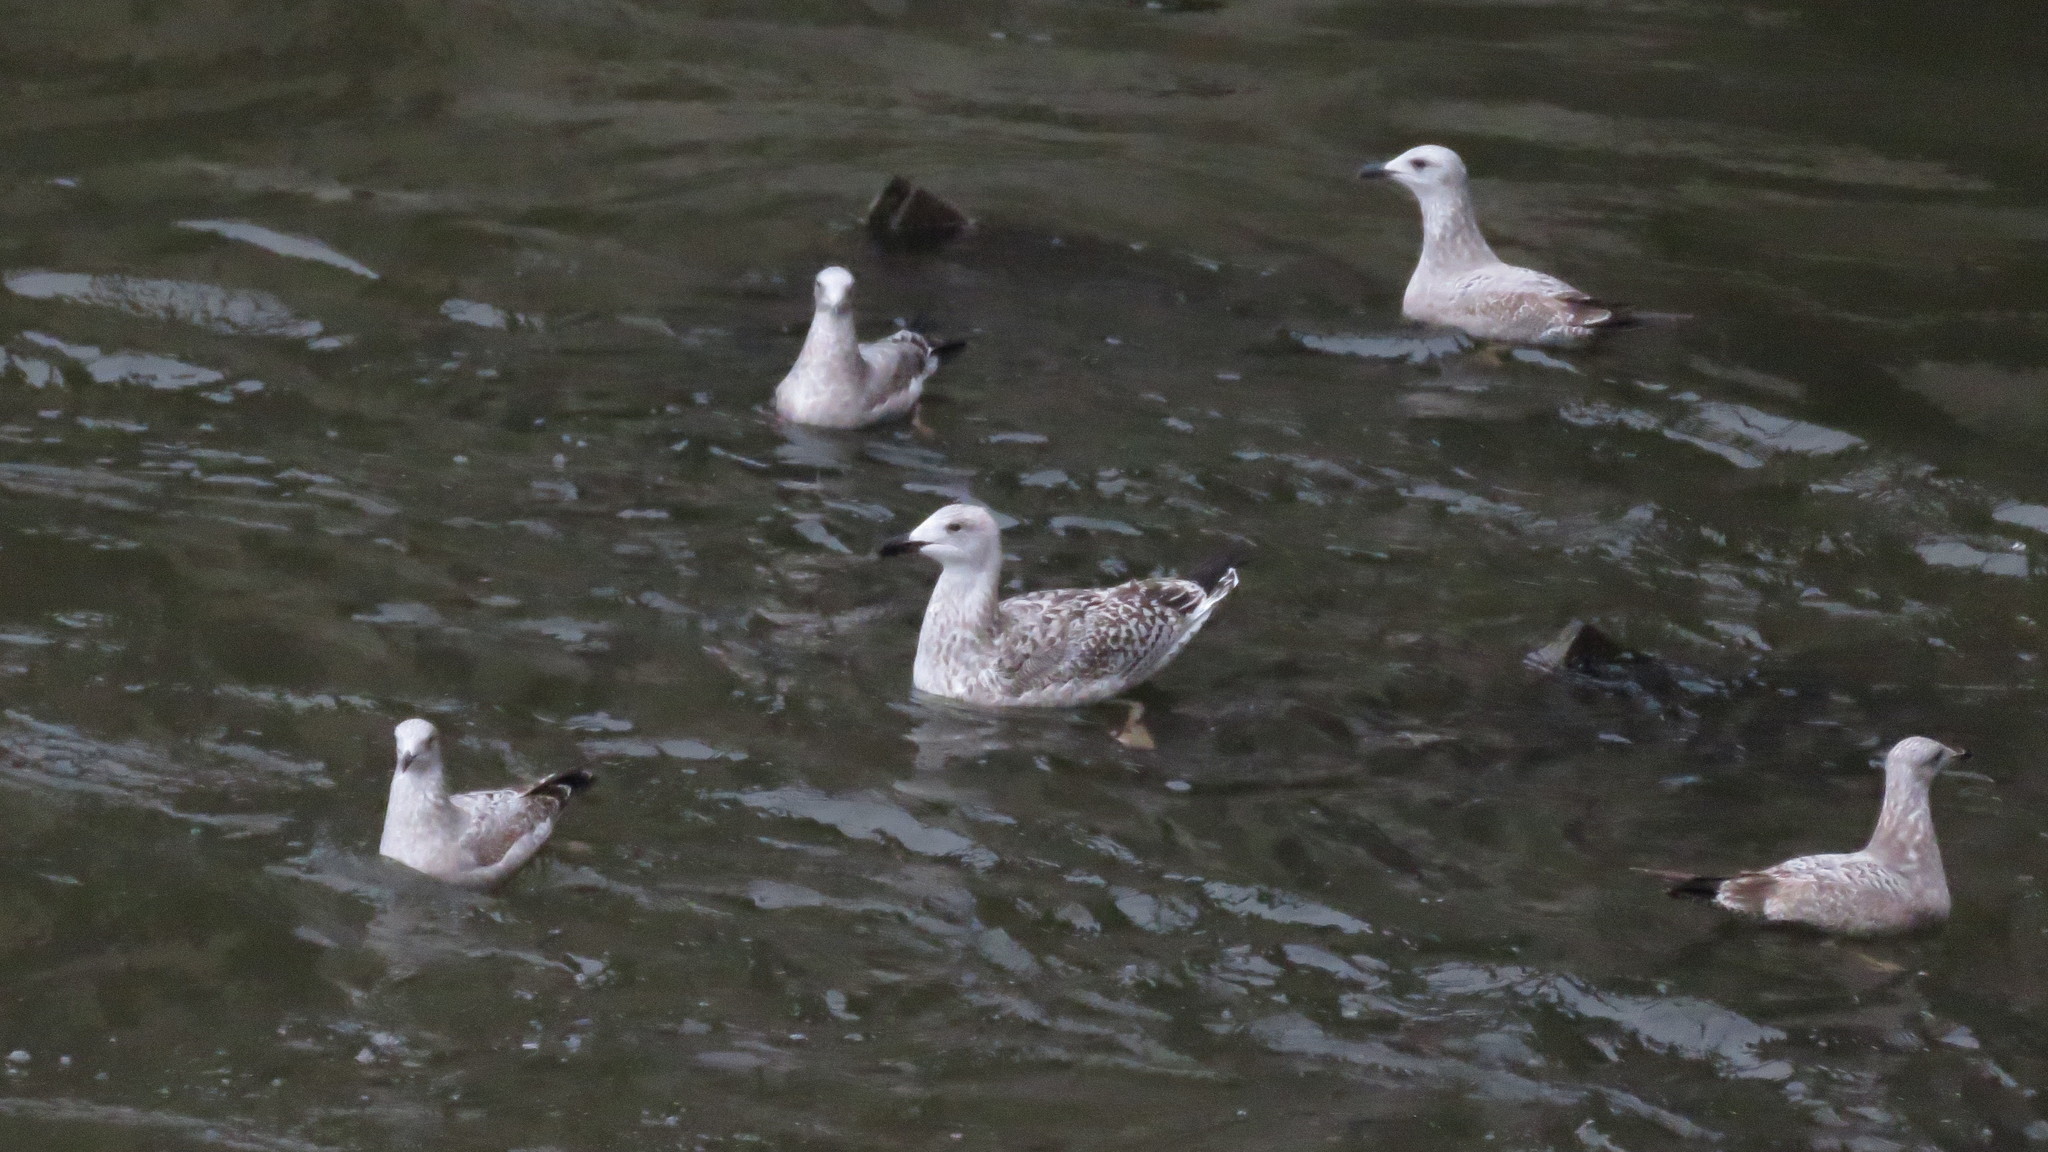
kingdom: Animalia
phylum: Chordata
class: Aves
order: Charadriiformes
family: Laridae
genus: Larus
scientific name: Larus marinus
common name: Great black-backed gull
